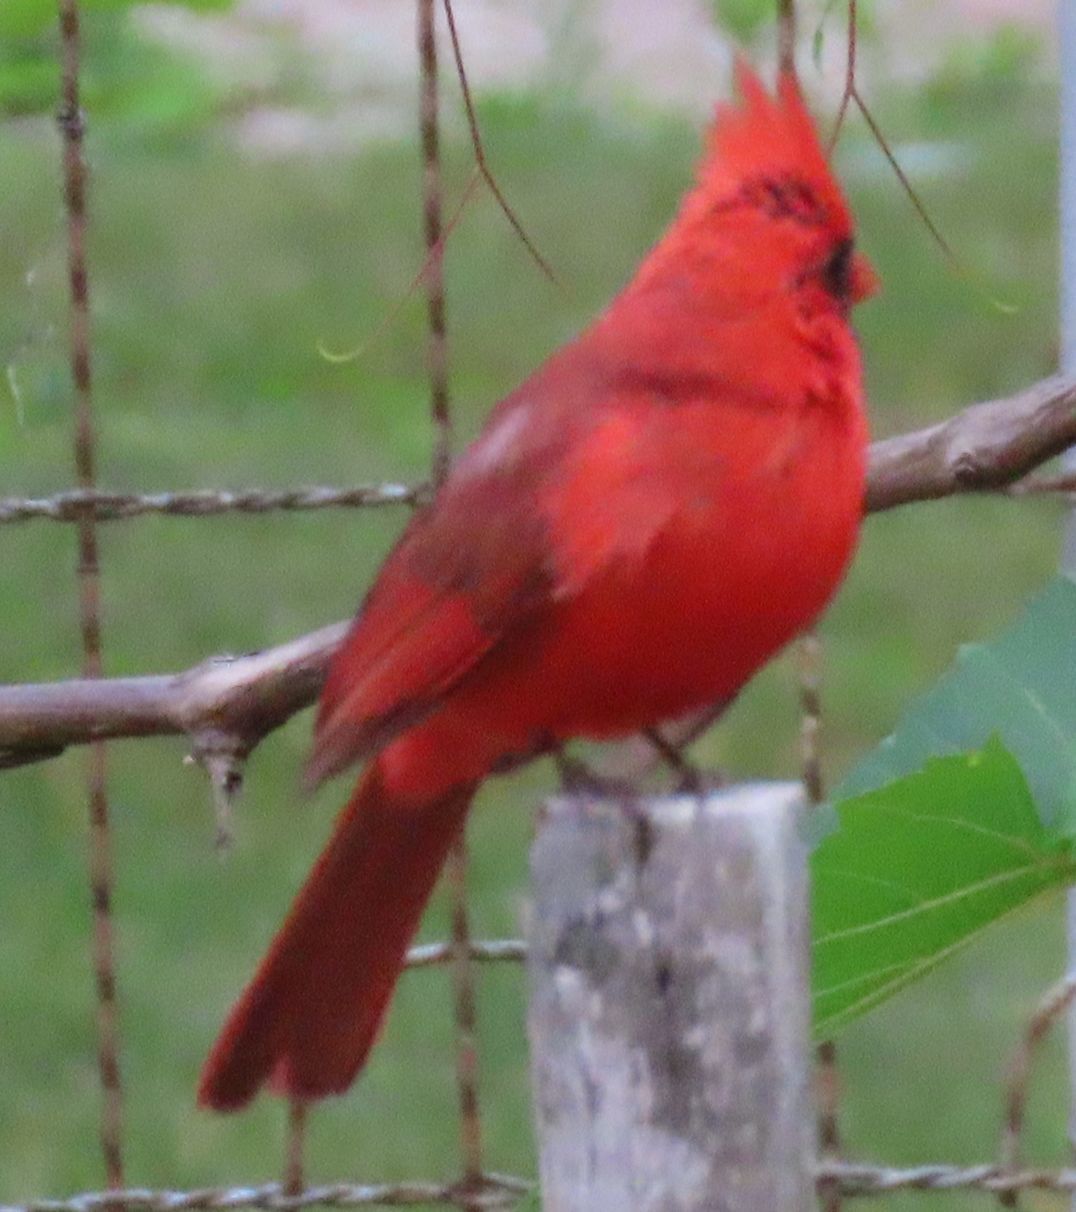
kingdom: Animalia
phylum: Chordata
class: Aves
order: Passeriformes
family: Cardinalidae
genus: Cardinalis
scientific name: Cardinalis cardinalis
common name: Northern cardinal
